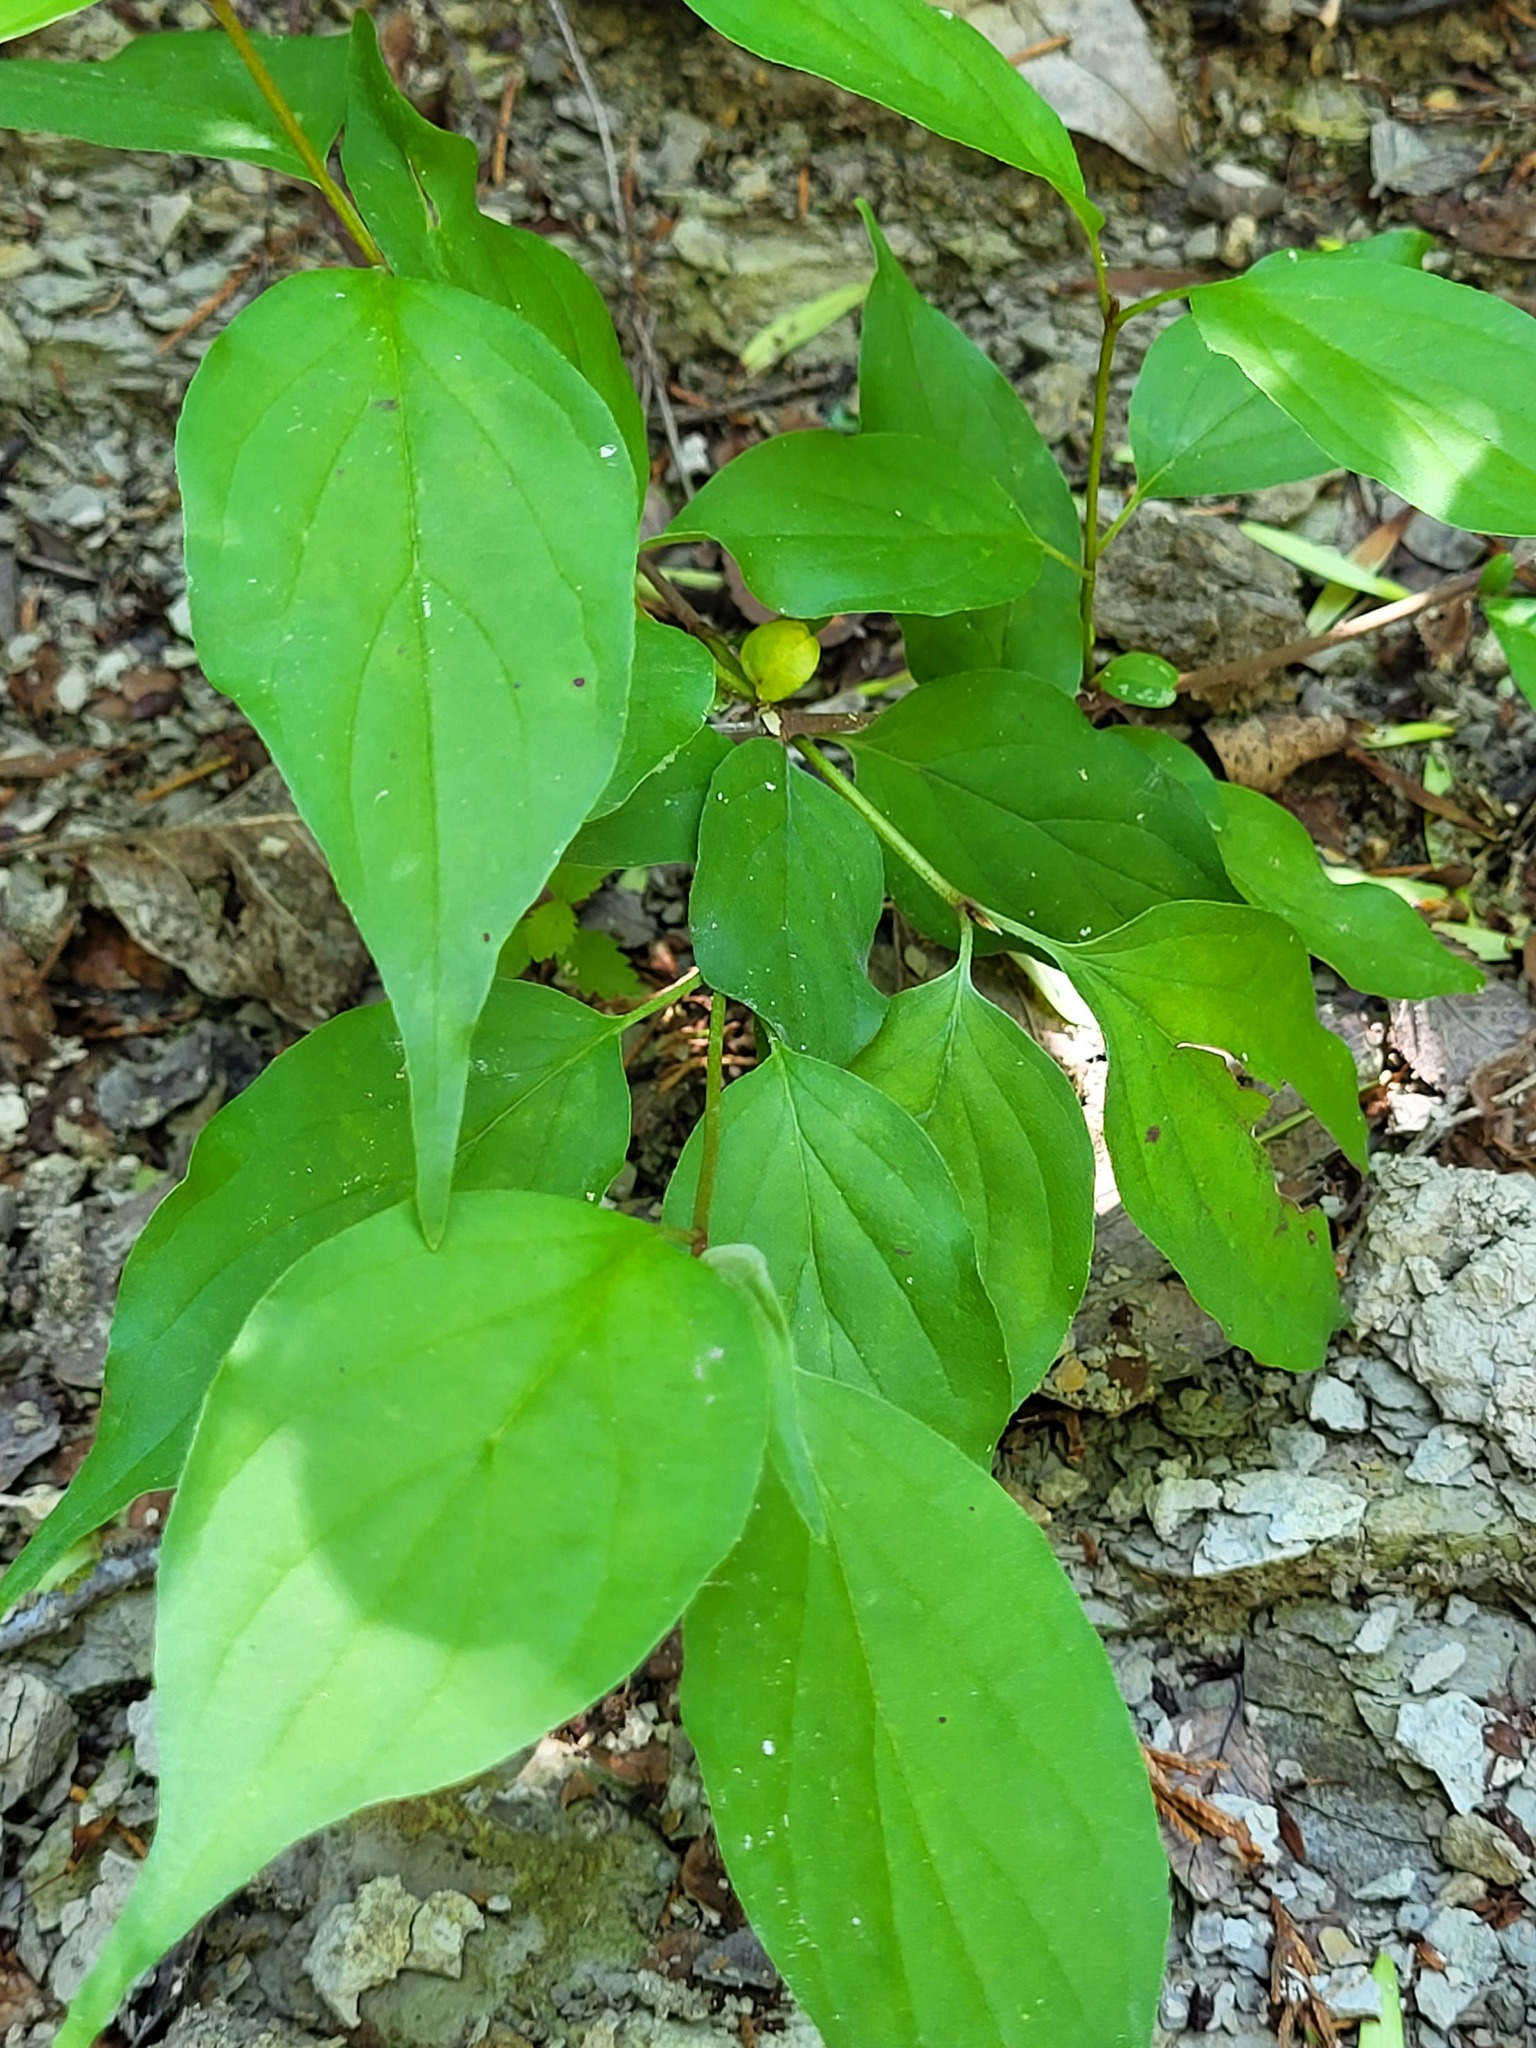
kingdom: Plantae
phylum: Tracheophyta
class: Magnoliopsida
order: Cornales
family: Cornaceae
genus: Cornus
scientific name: Cornus drummondii
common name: Rough-leaf dogwood
